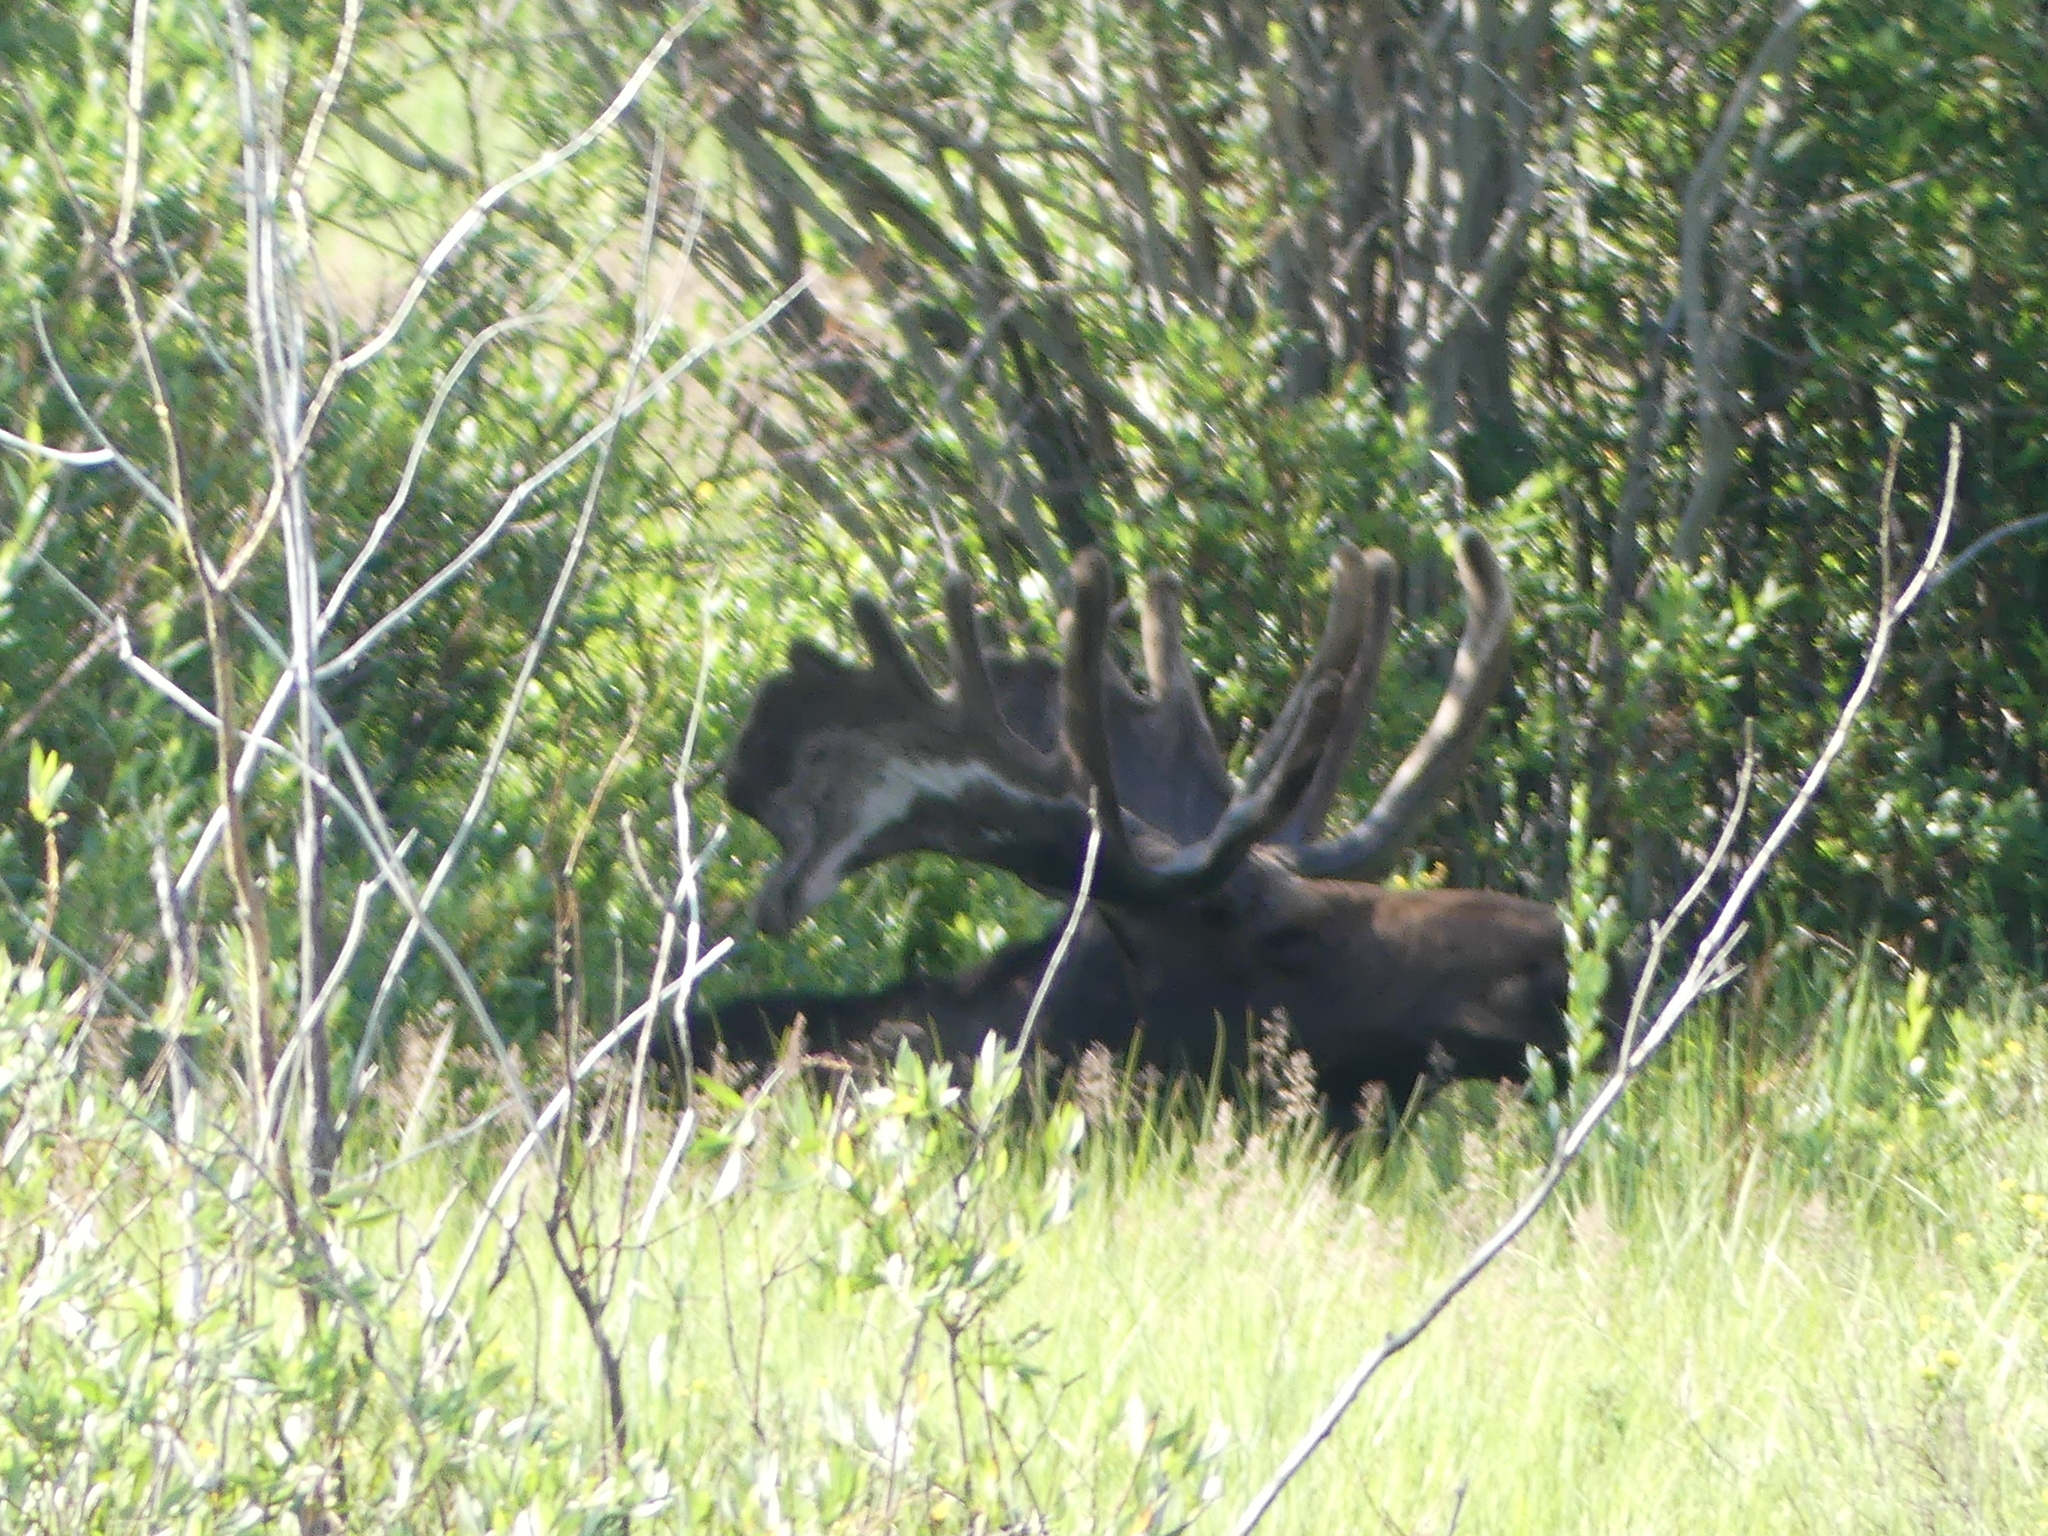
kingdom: Animalia
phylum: Chordata
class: Mammalia
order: Artiodactyla
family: Cervidae
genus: Alces
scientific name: Alces alces
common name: Moose
